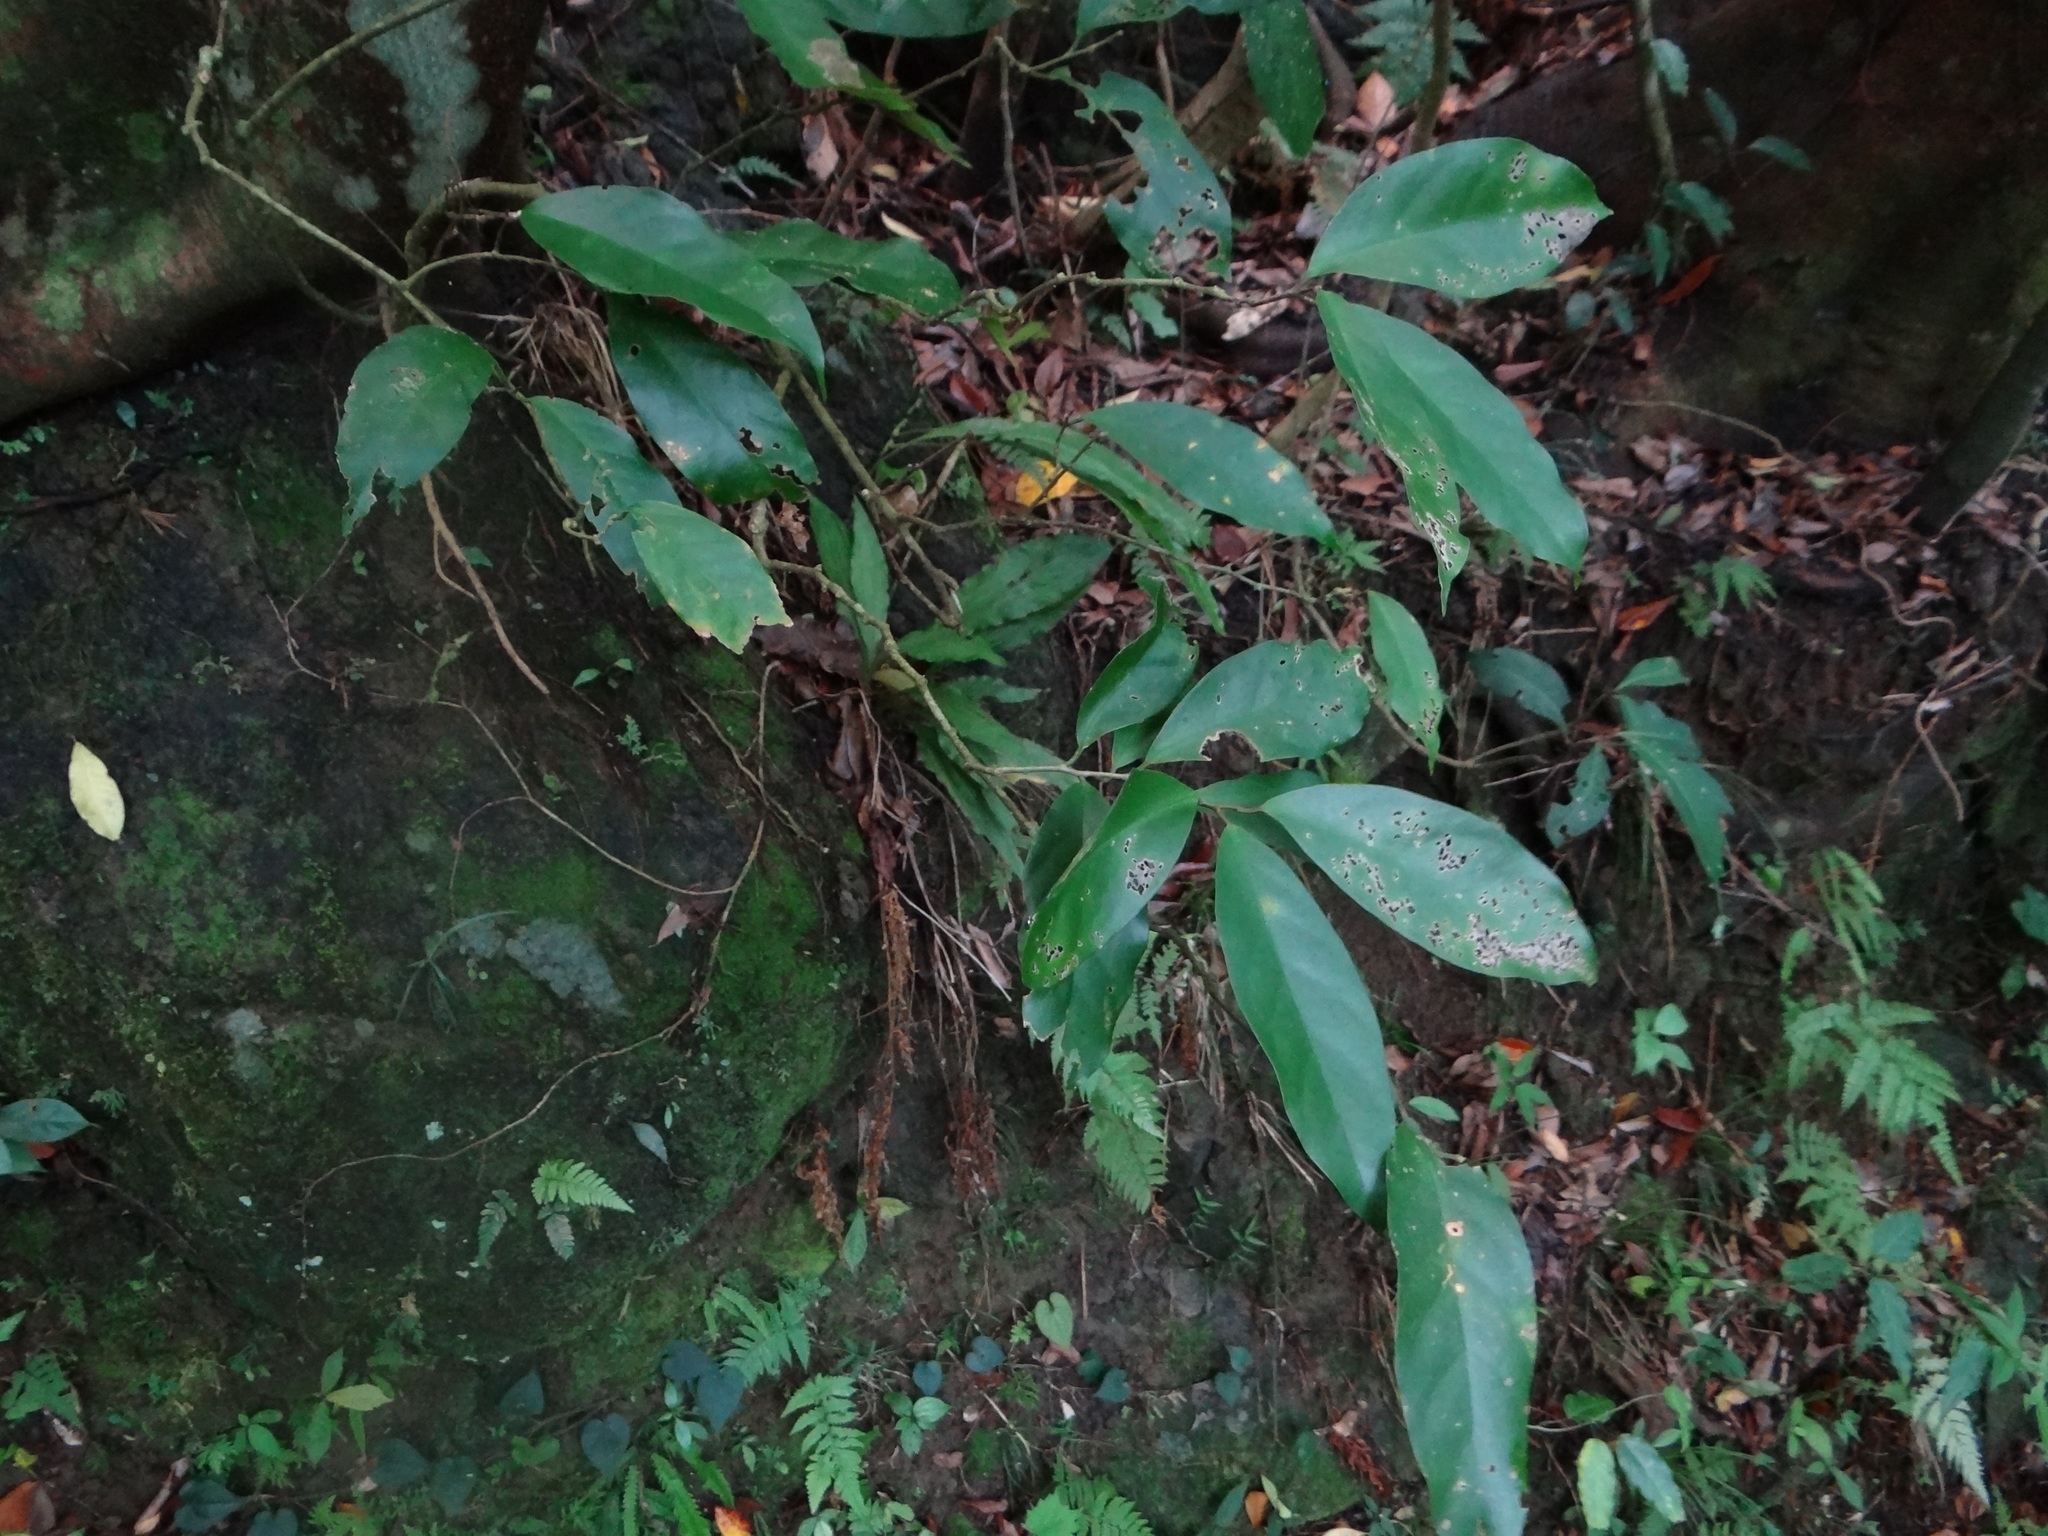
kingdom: Plantae
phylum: Tracheophyta
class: Magnoliopsida
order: Solanales
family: Convolvulaceae
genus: Erycibe
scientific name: Erycibe henryi
